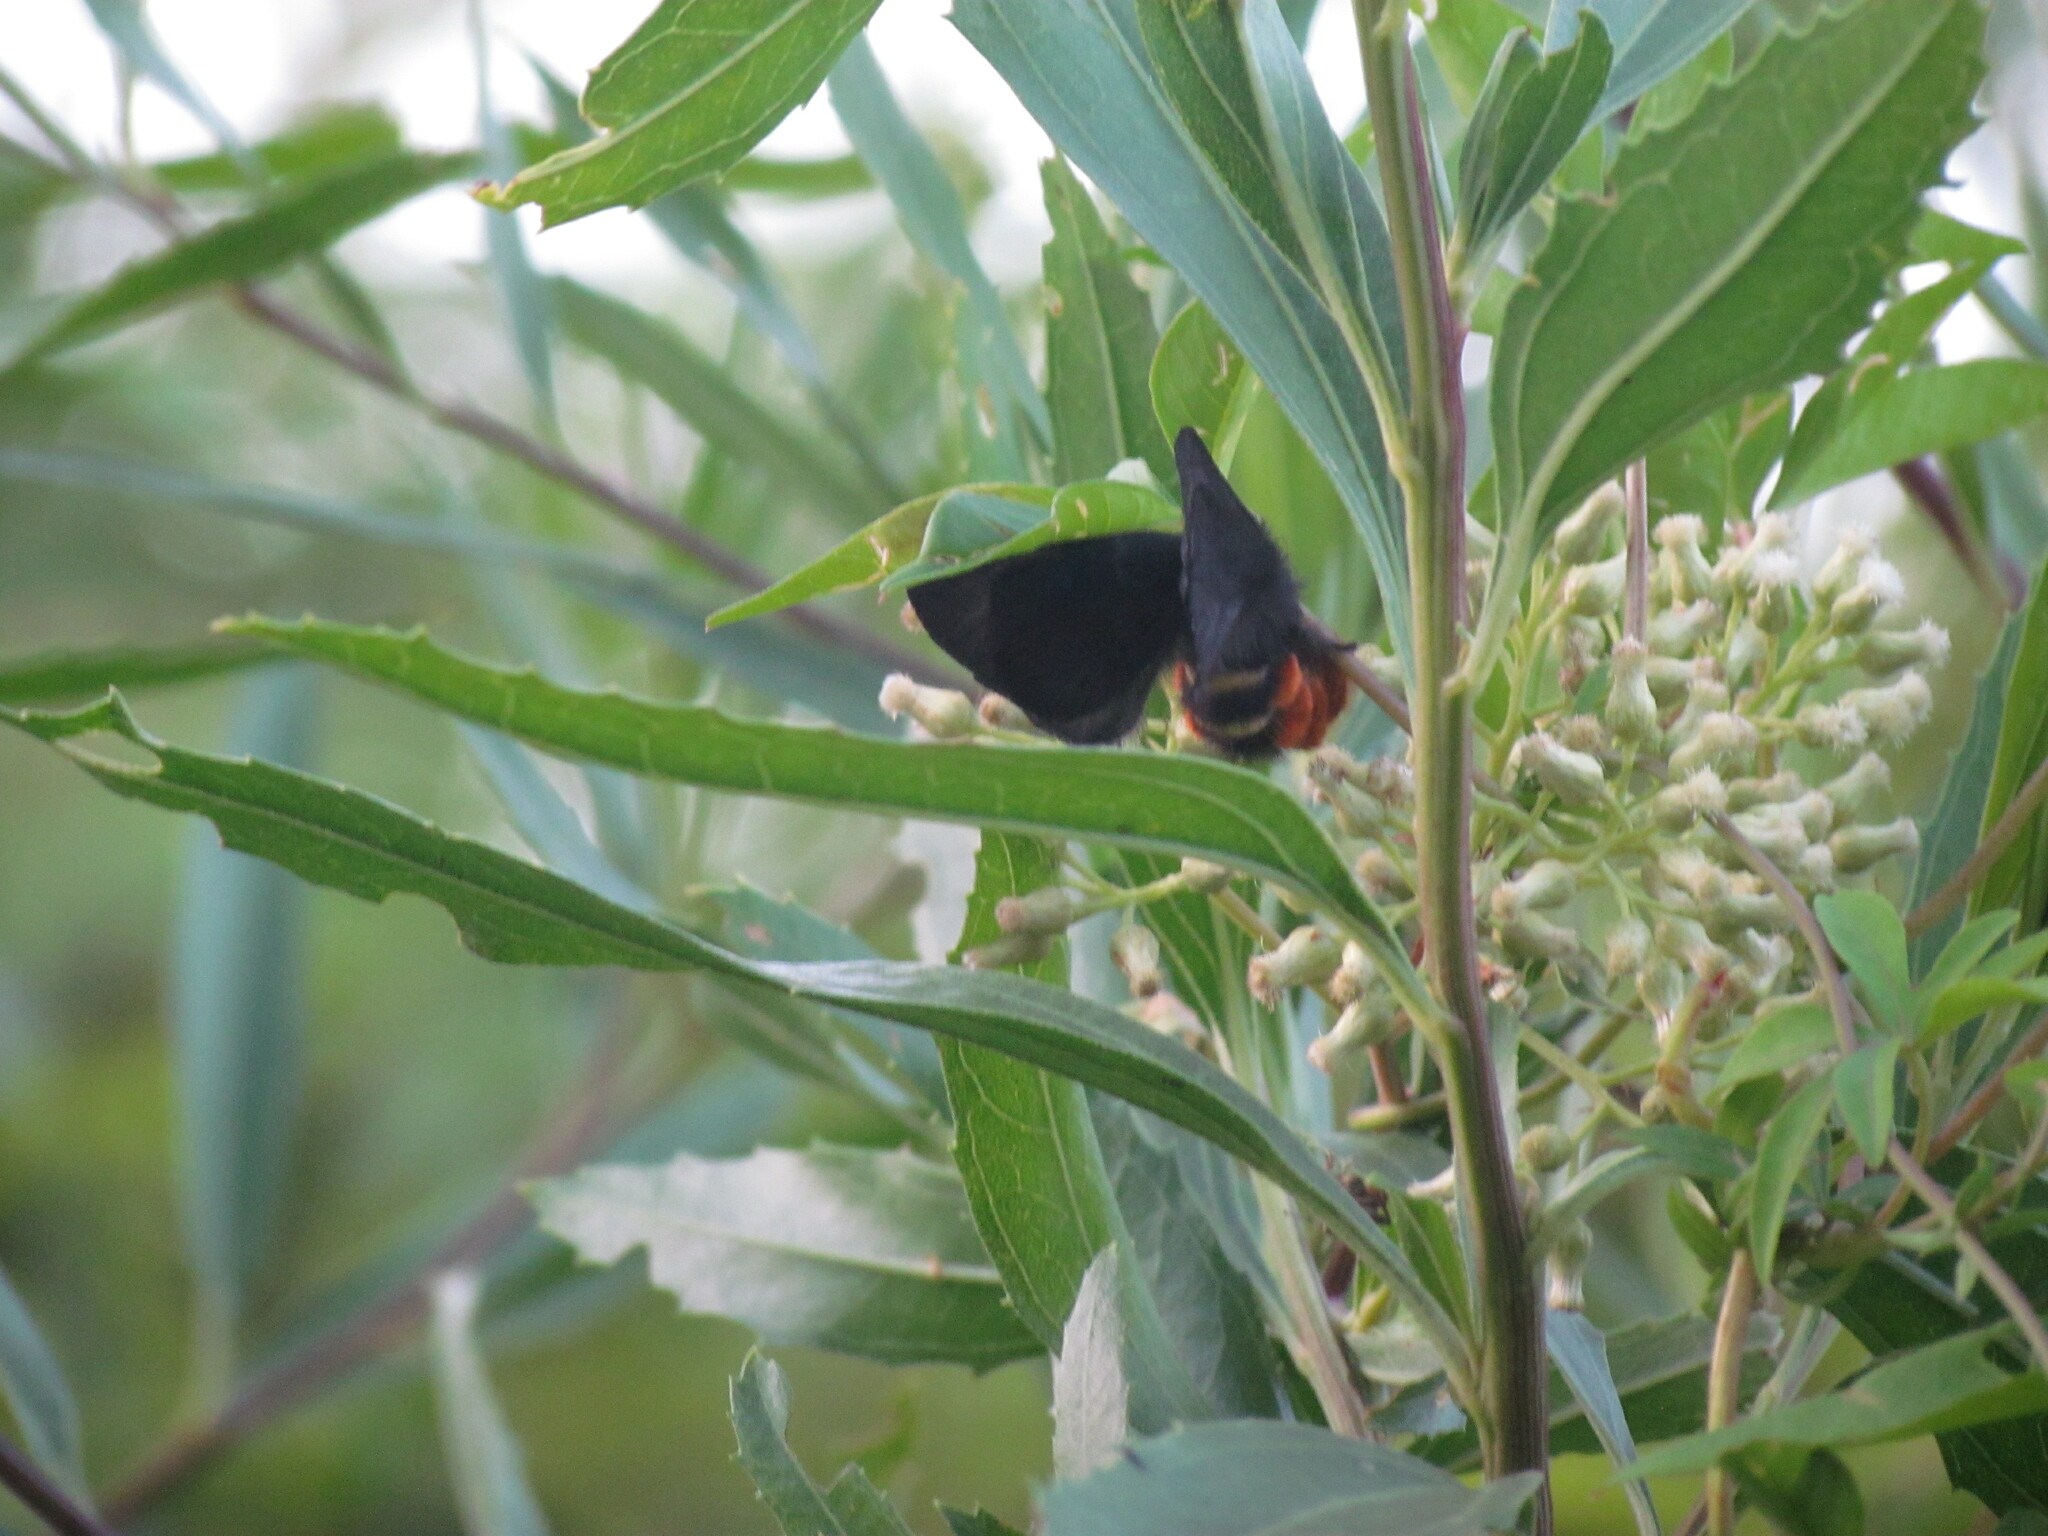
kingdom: Animalia
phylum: Arthropoda
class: Insecta
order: Lepidoptera
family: Saturniidae
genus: Hylesia
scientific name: Hylesia nigricans
